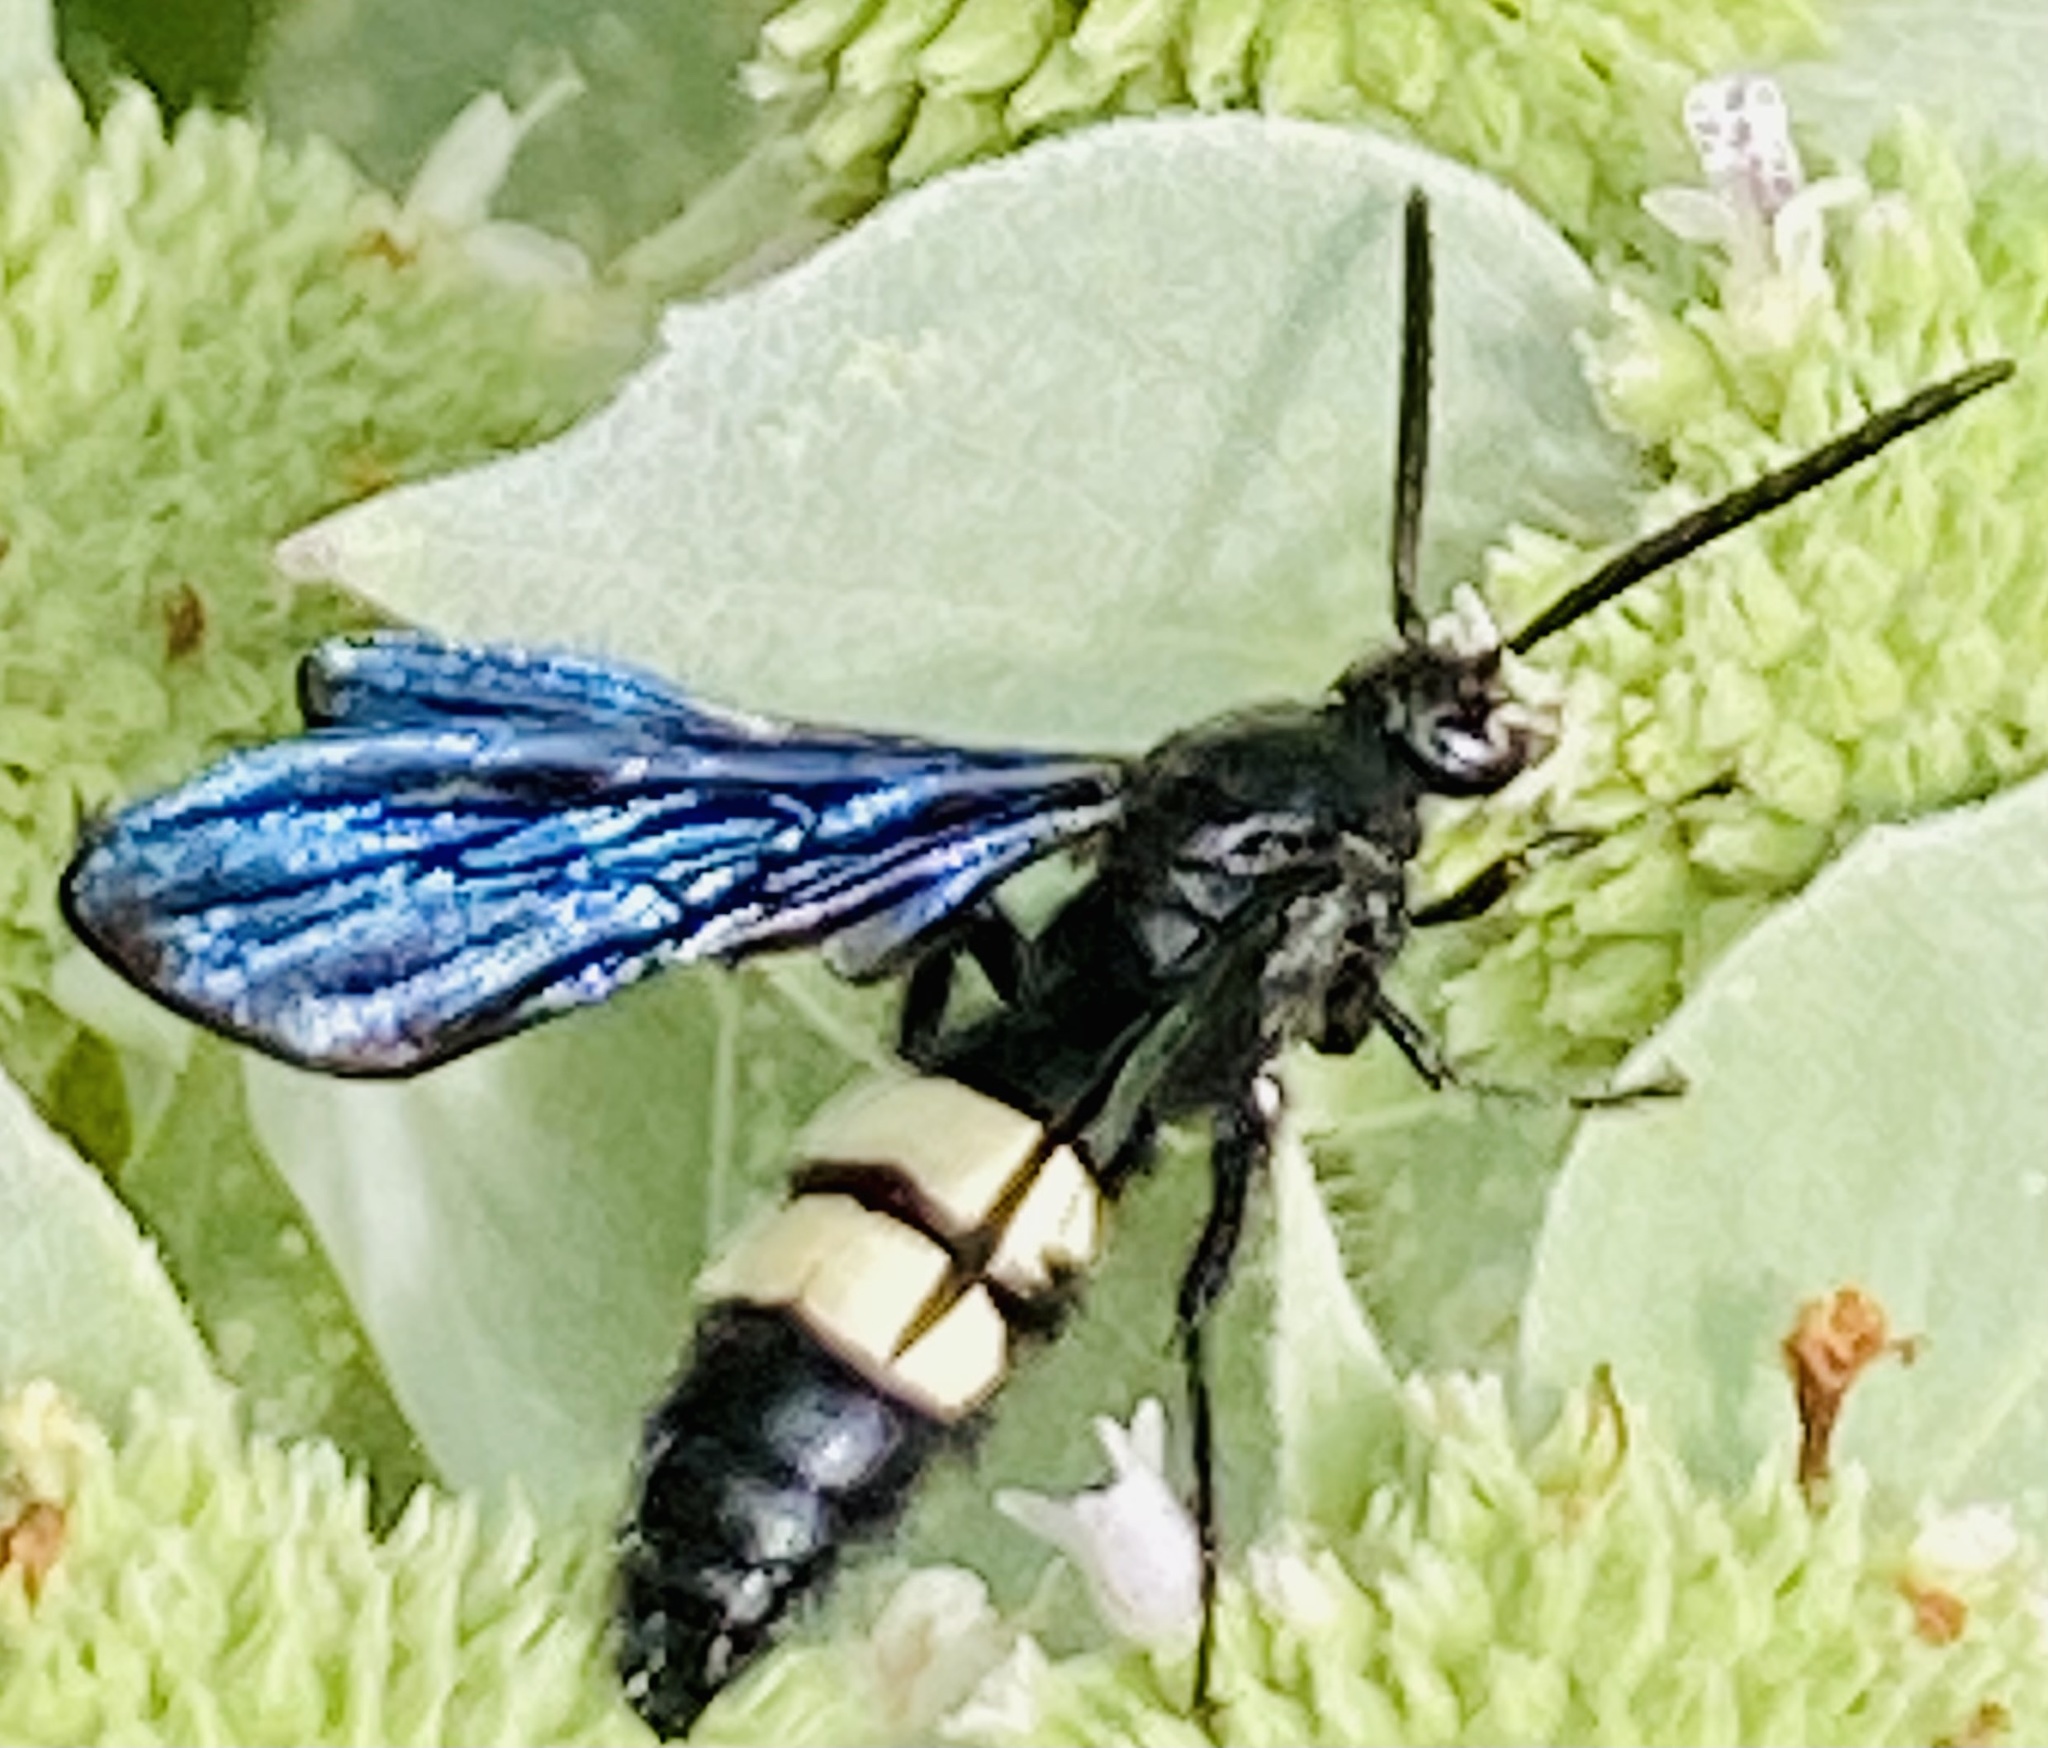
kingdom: Animalia
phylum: Arthropoda
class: Insecta
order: Hymenoptera
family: Scoliidae
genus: Scolia
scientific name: Scolia bicincta
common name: Double-banded scoliid wasp
